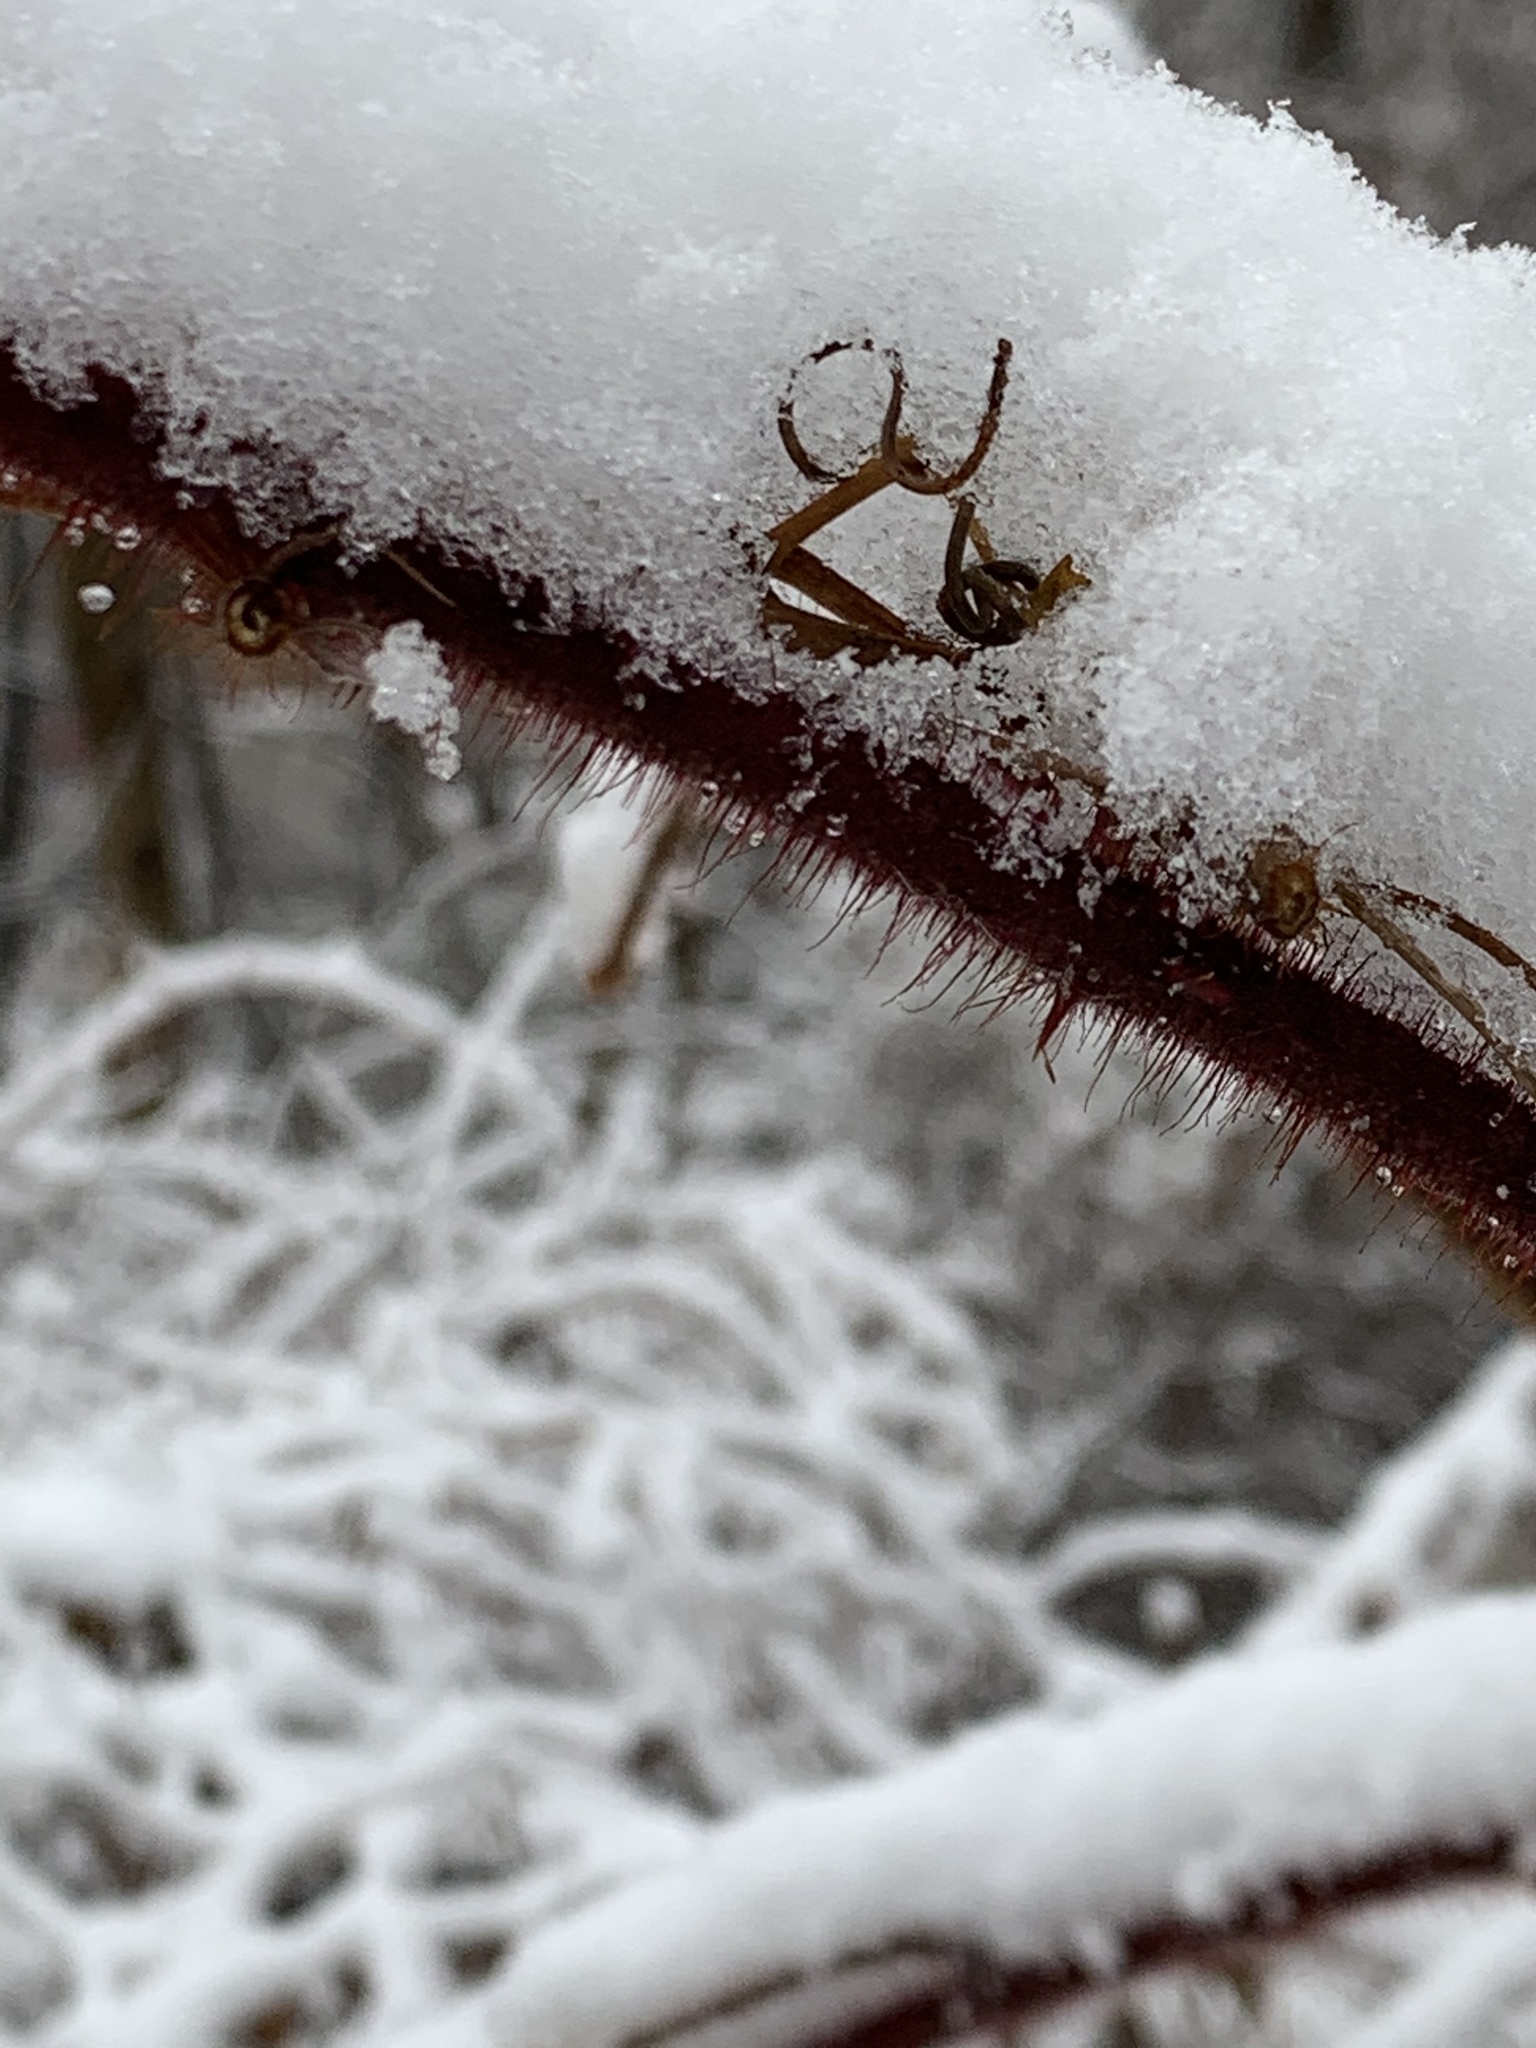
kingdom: Plantae
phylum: Tracheophyta
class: Magnoliopsida
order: Rosales
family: Rosaceae
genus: Rubus
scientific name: Rubus phoenicolasius
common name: Japanese wineberry
